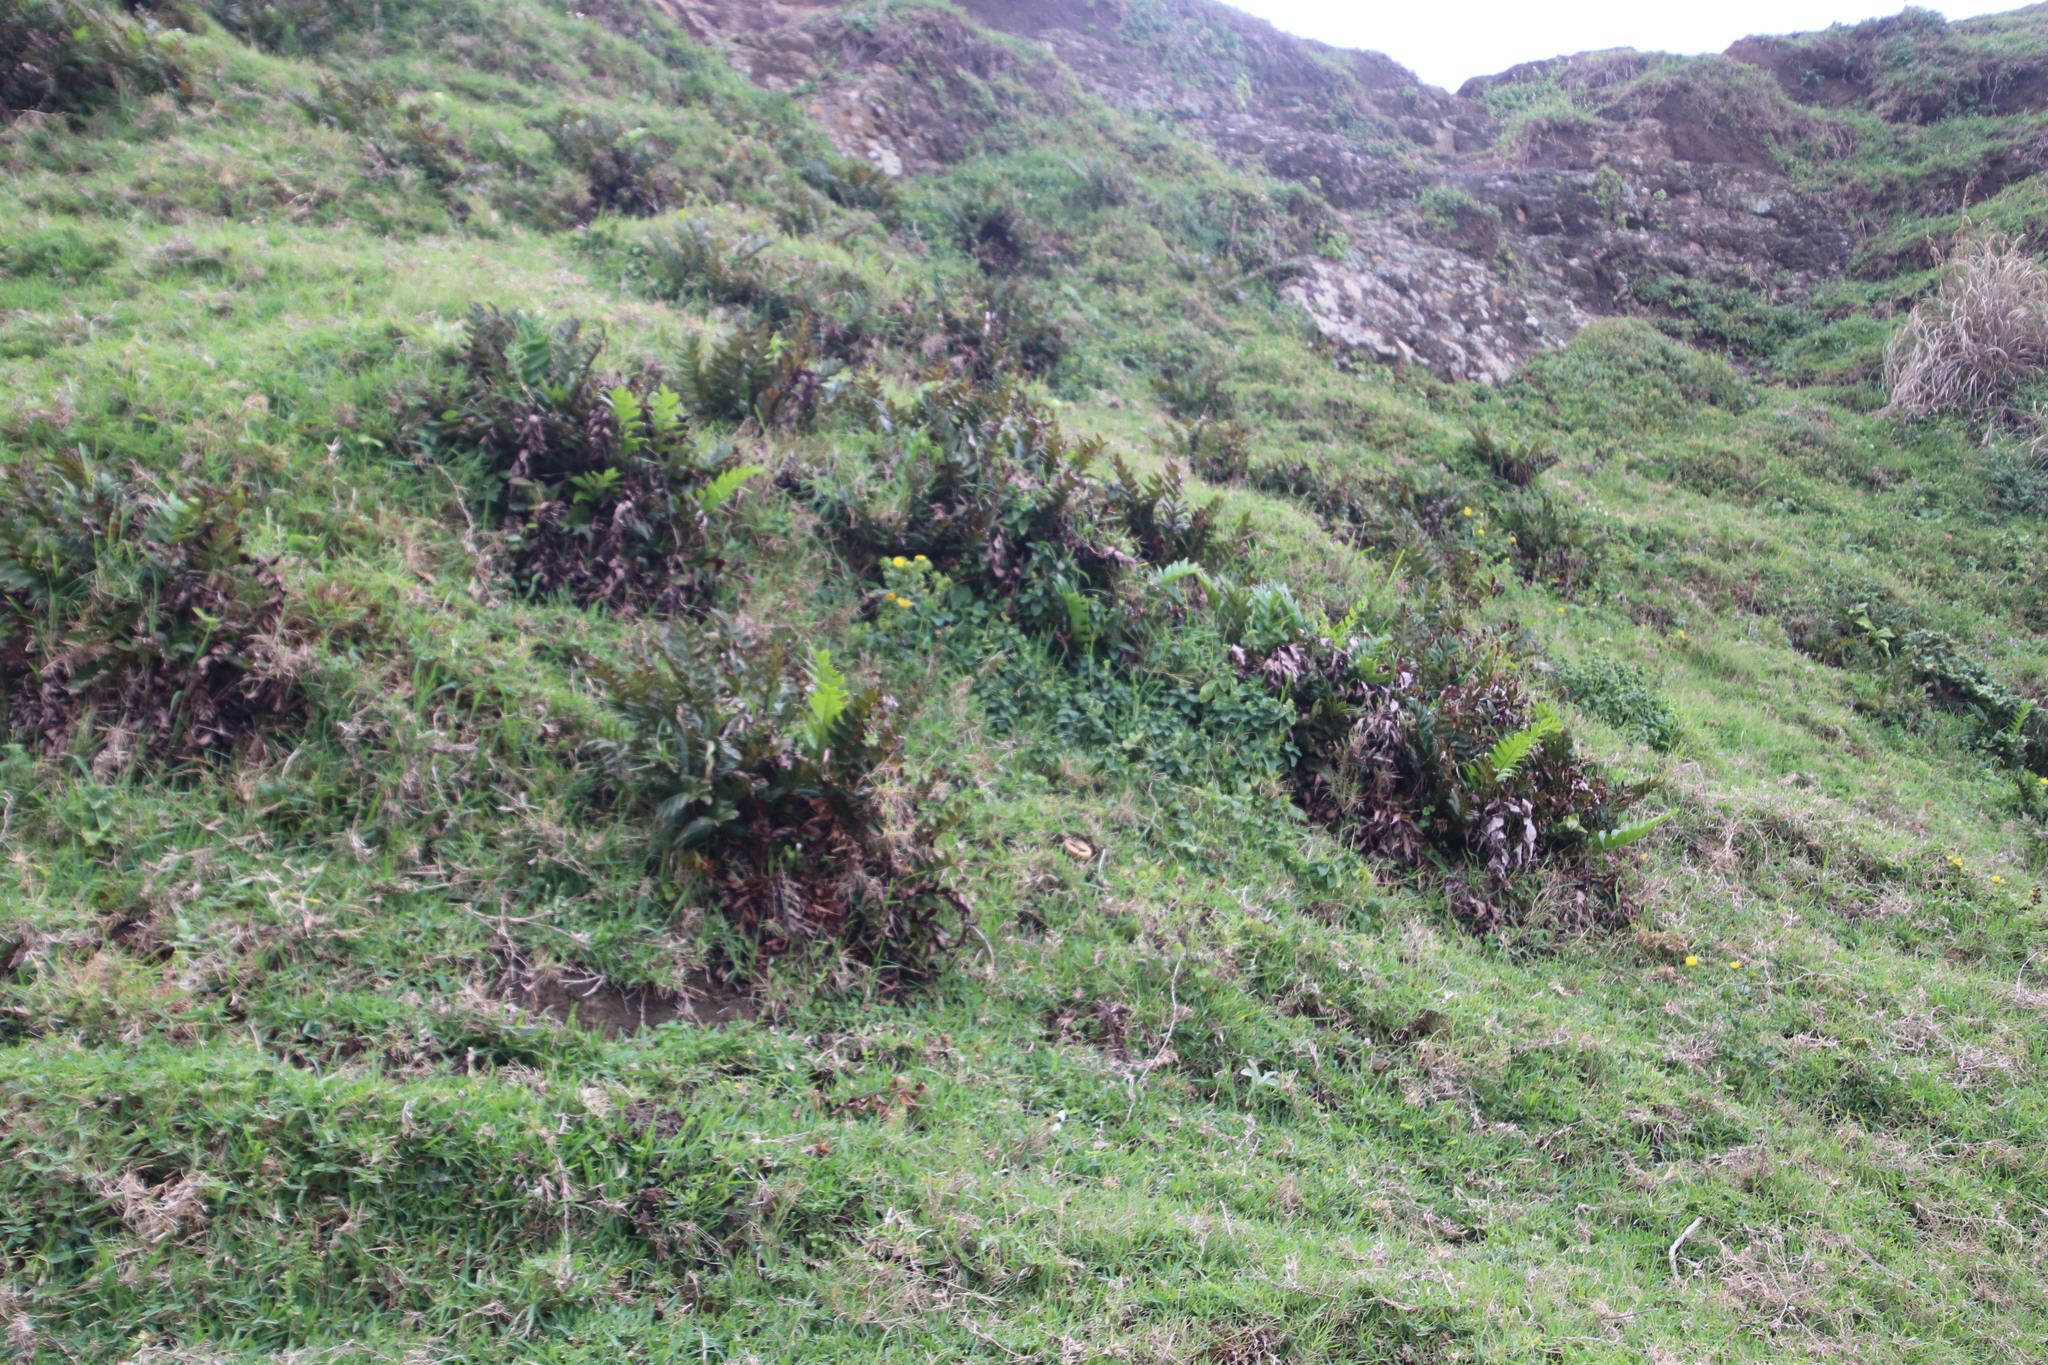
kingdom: Plantae
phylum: Tracheophyta
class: Magnoliopsida
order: Asterales
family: Asteraceae
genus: Berkheya
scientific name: Berkheya erysithales
